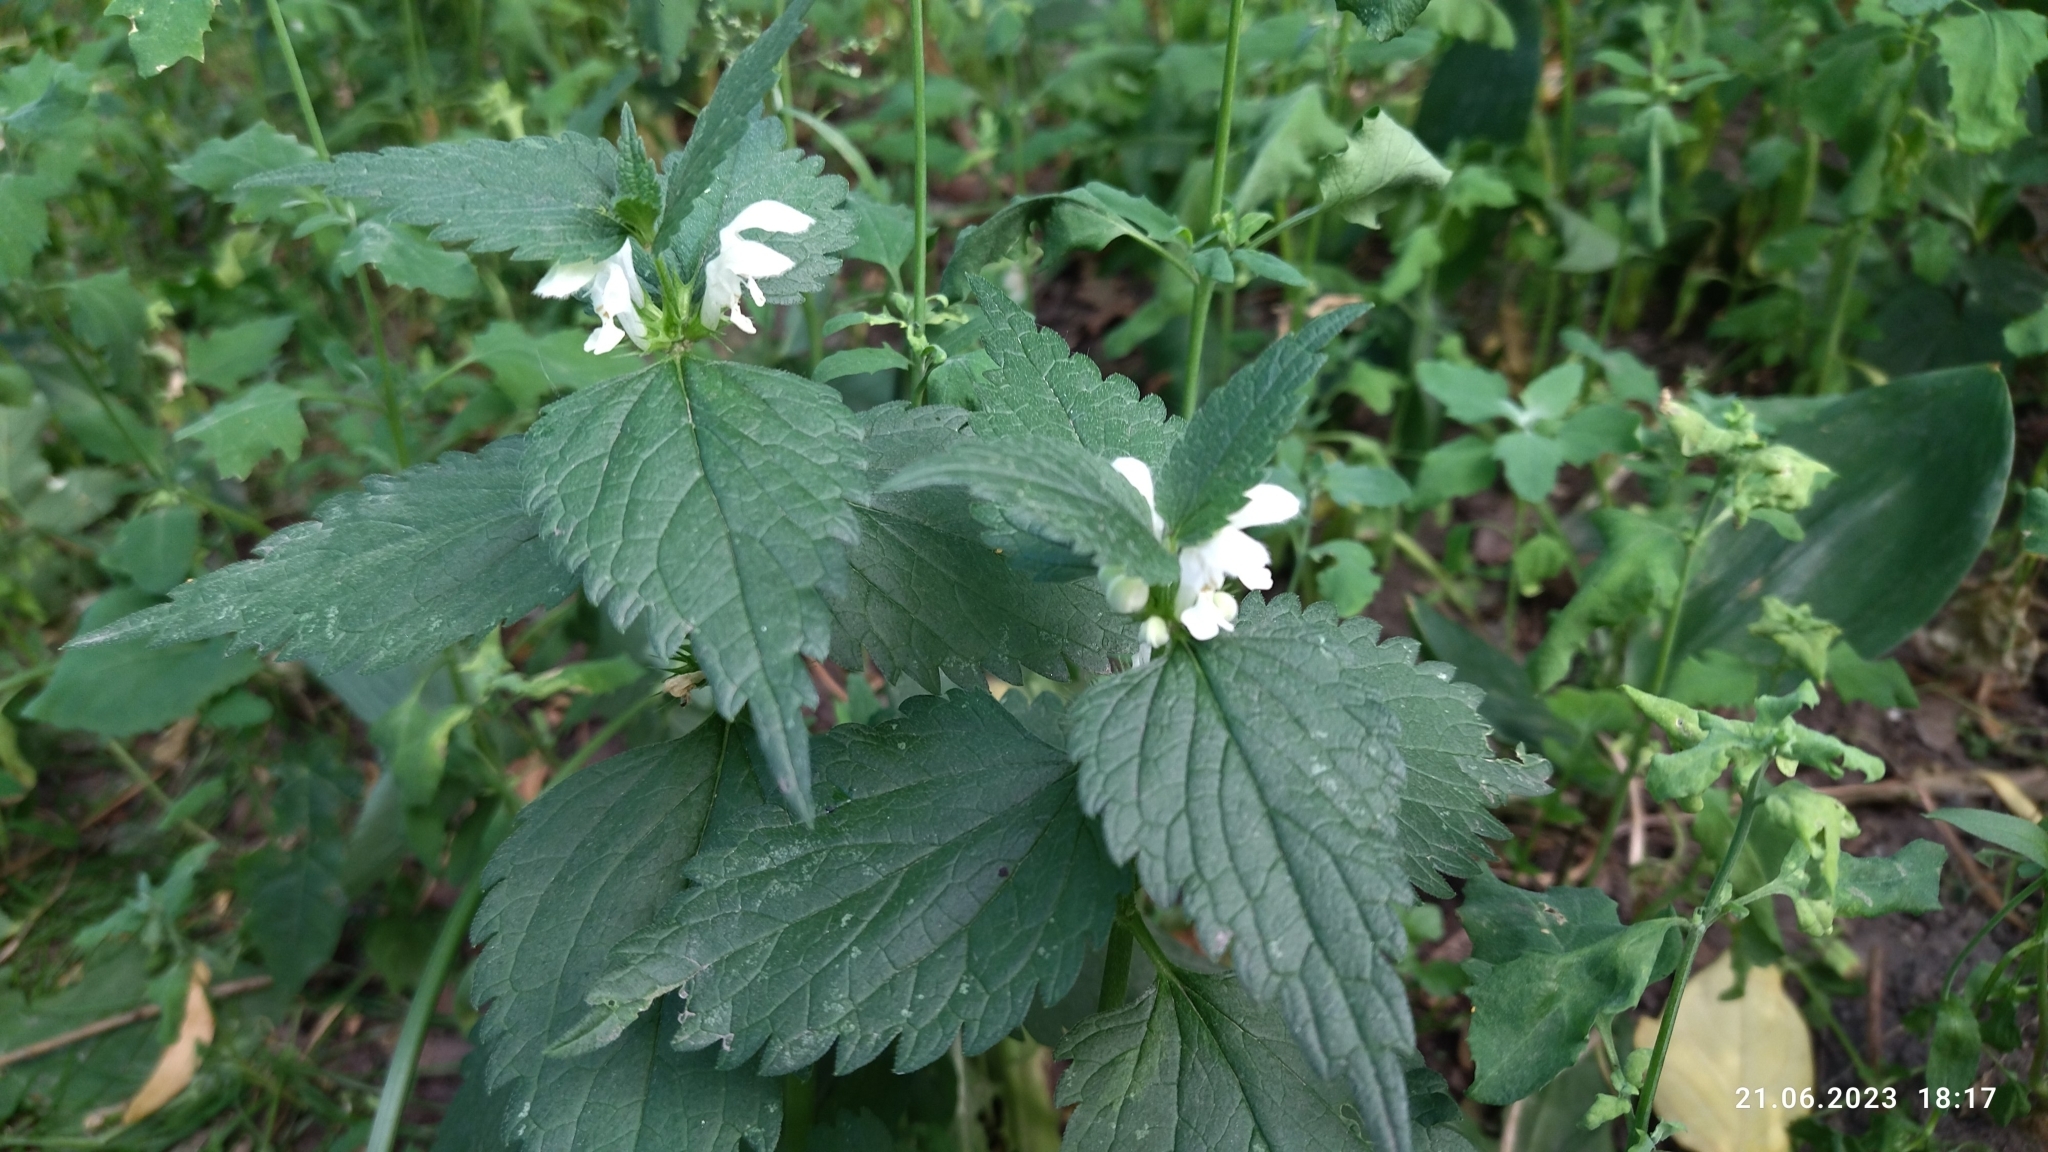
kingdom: Plantae
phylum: Tracheophyta
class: Magnoliopsida
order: Lamiales
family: Lamiaceae
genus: Lamium
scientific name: Lamium album
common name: White dead-nettle
